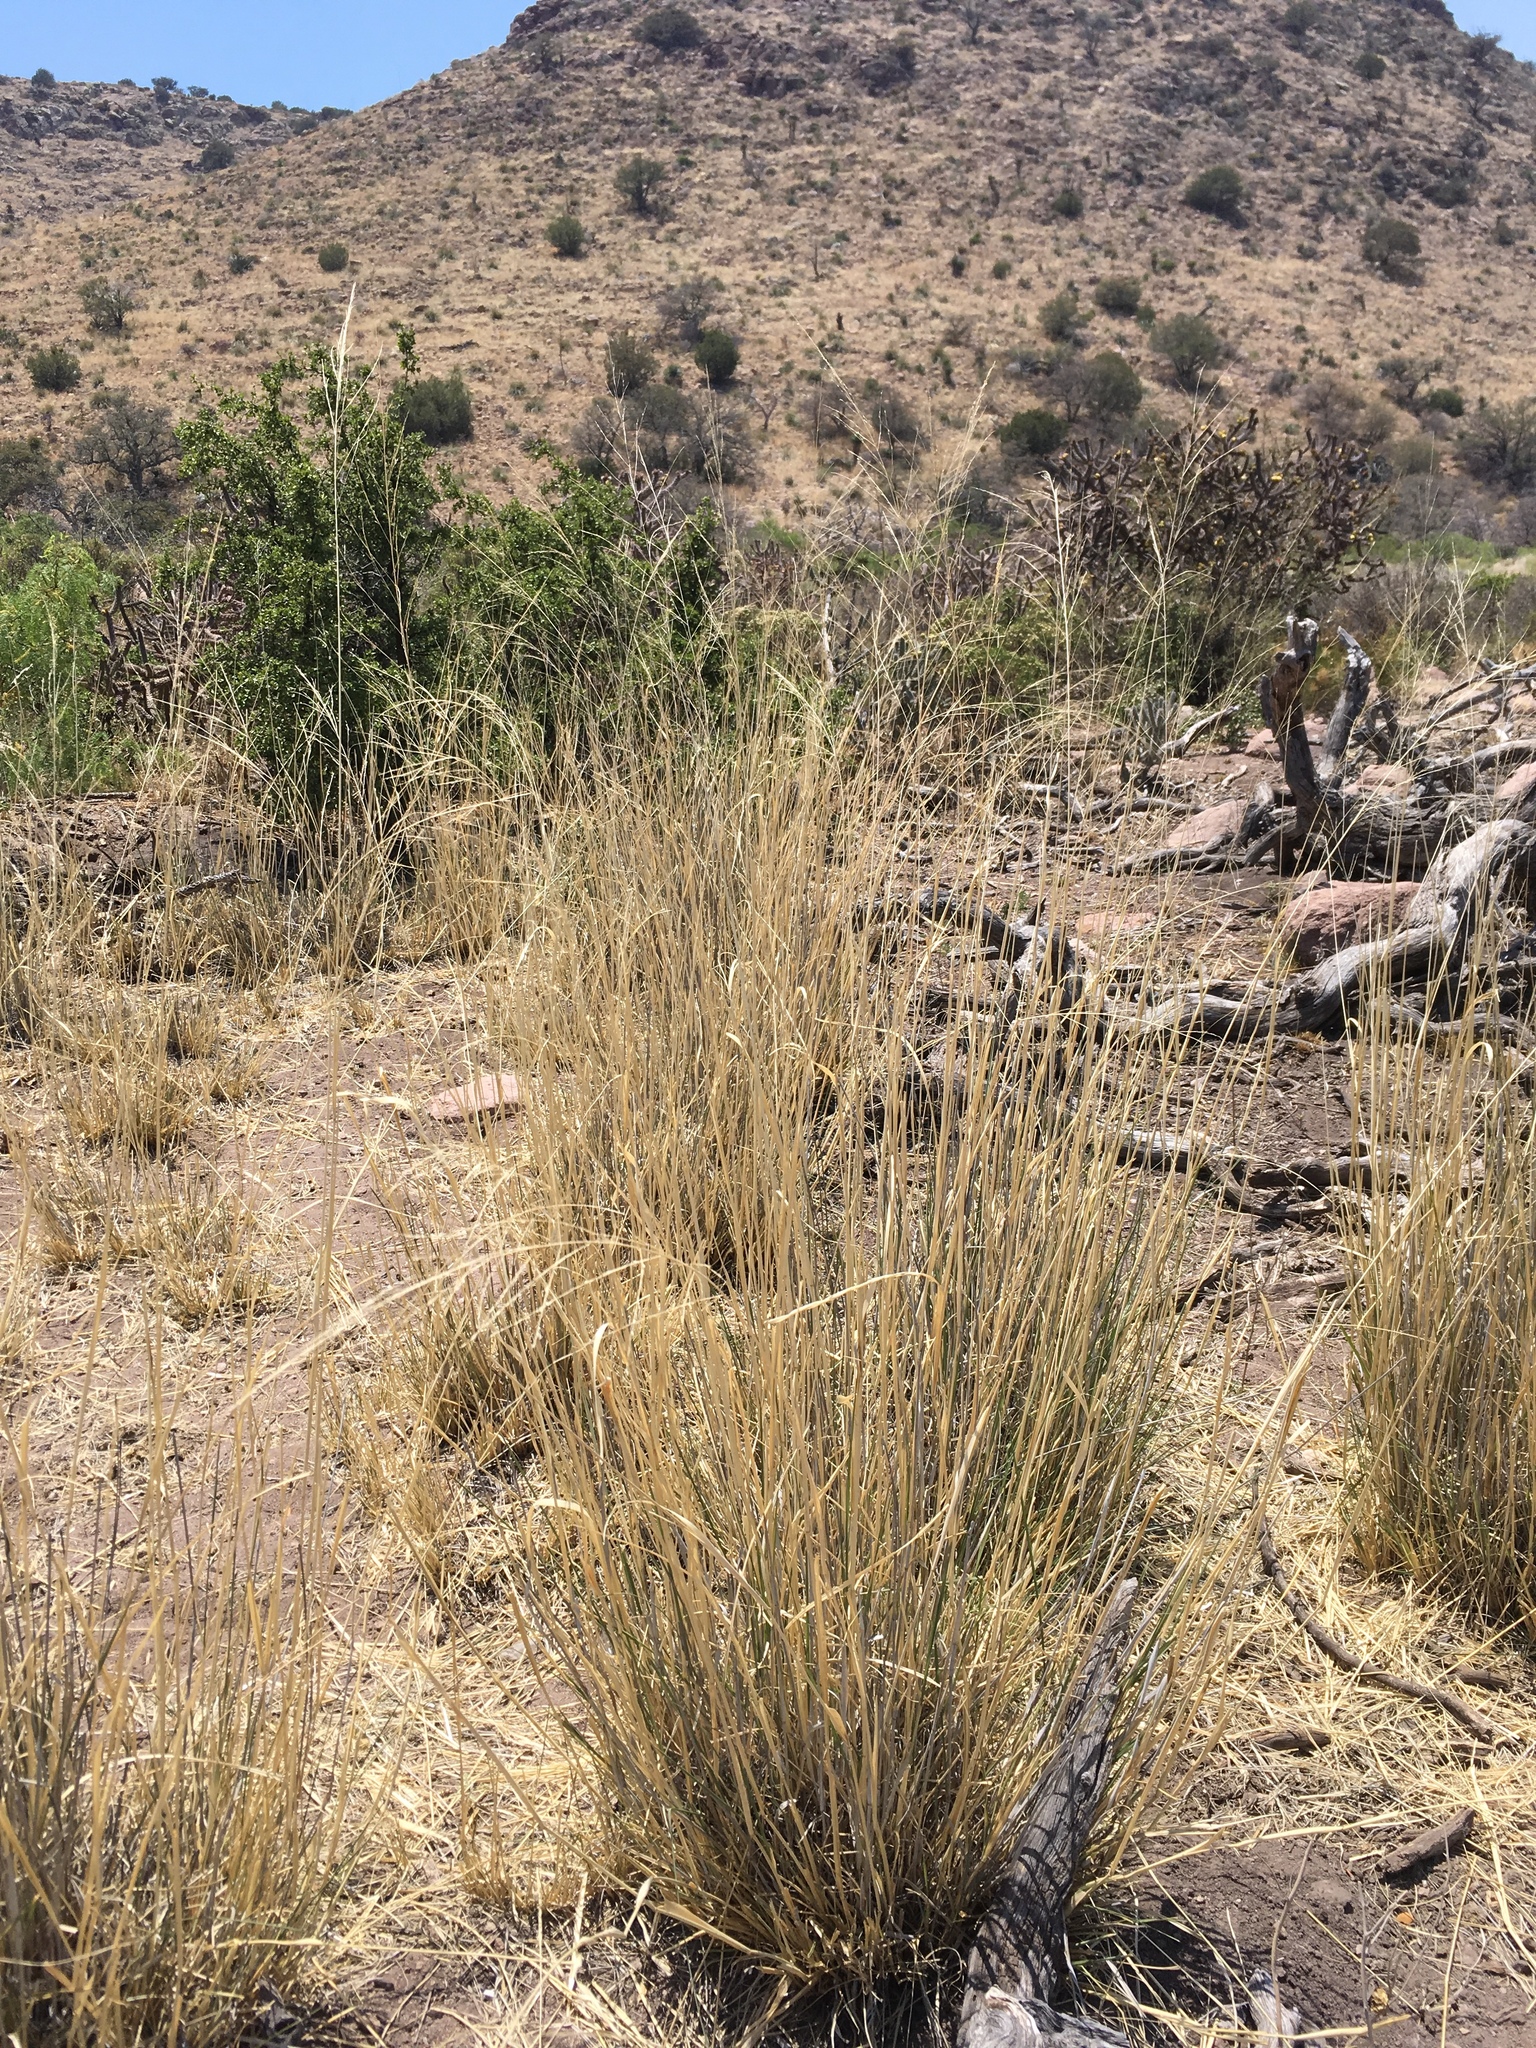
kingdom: Plantae
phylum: Tracheophyta
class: Liliopsida
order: Poales
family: Poaceae
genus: Sporobolus
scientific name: Sporobolus wrightii
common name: Big alkali sacaton
